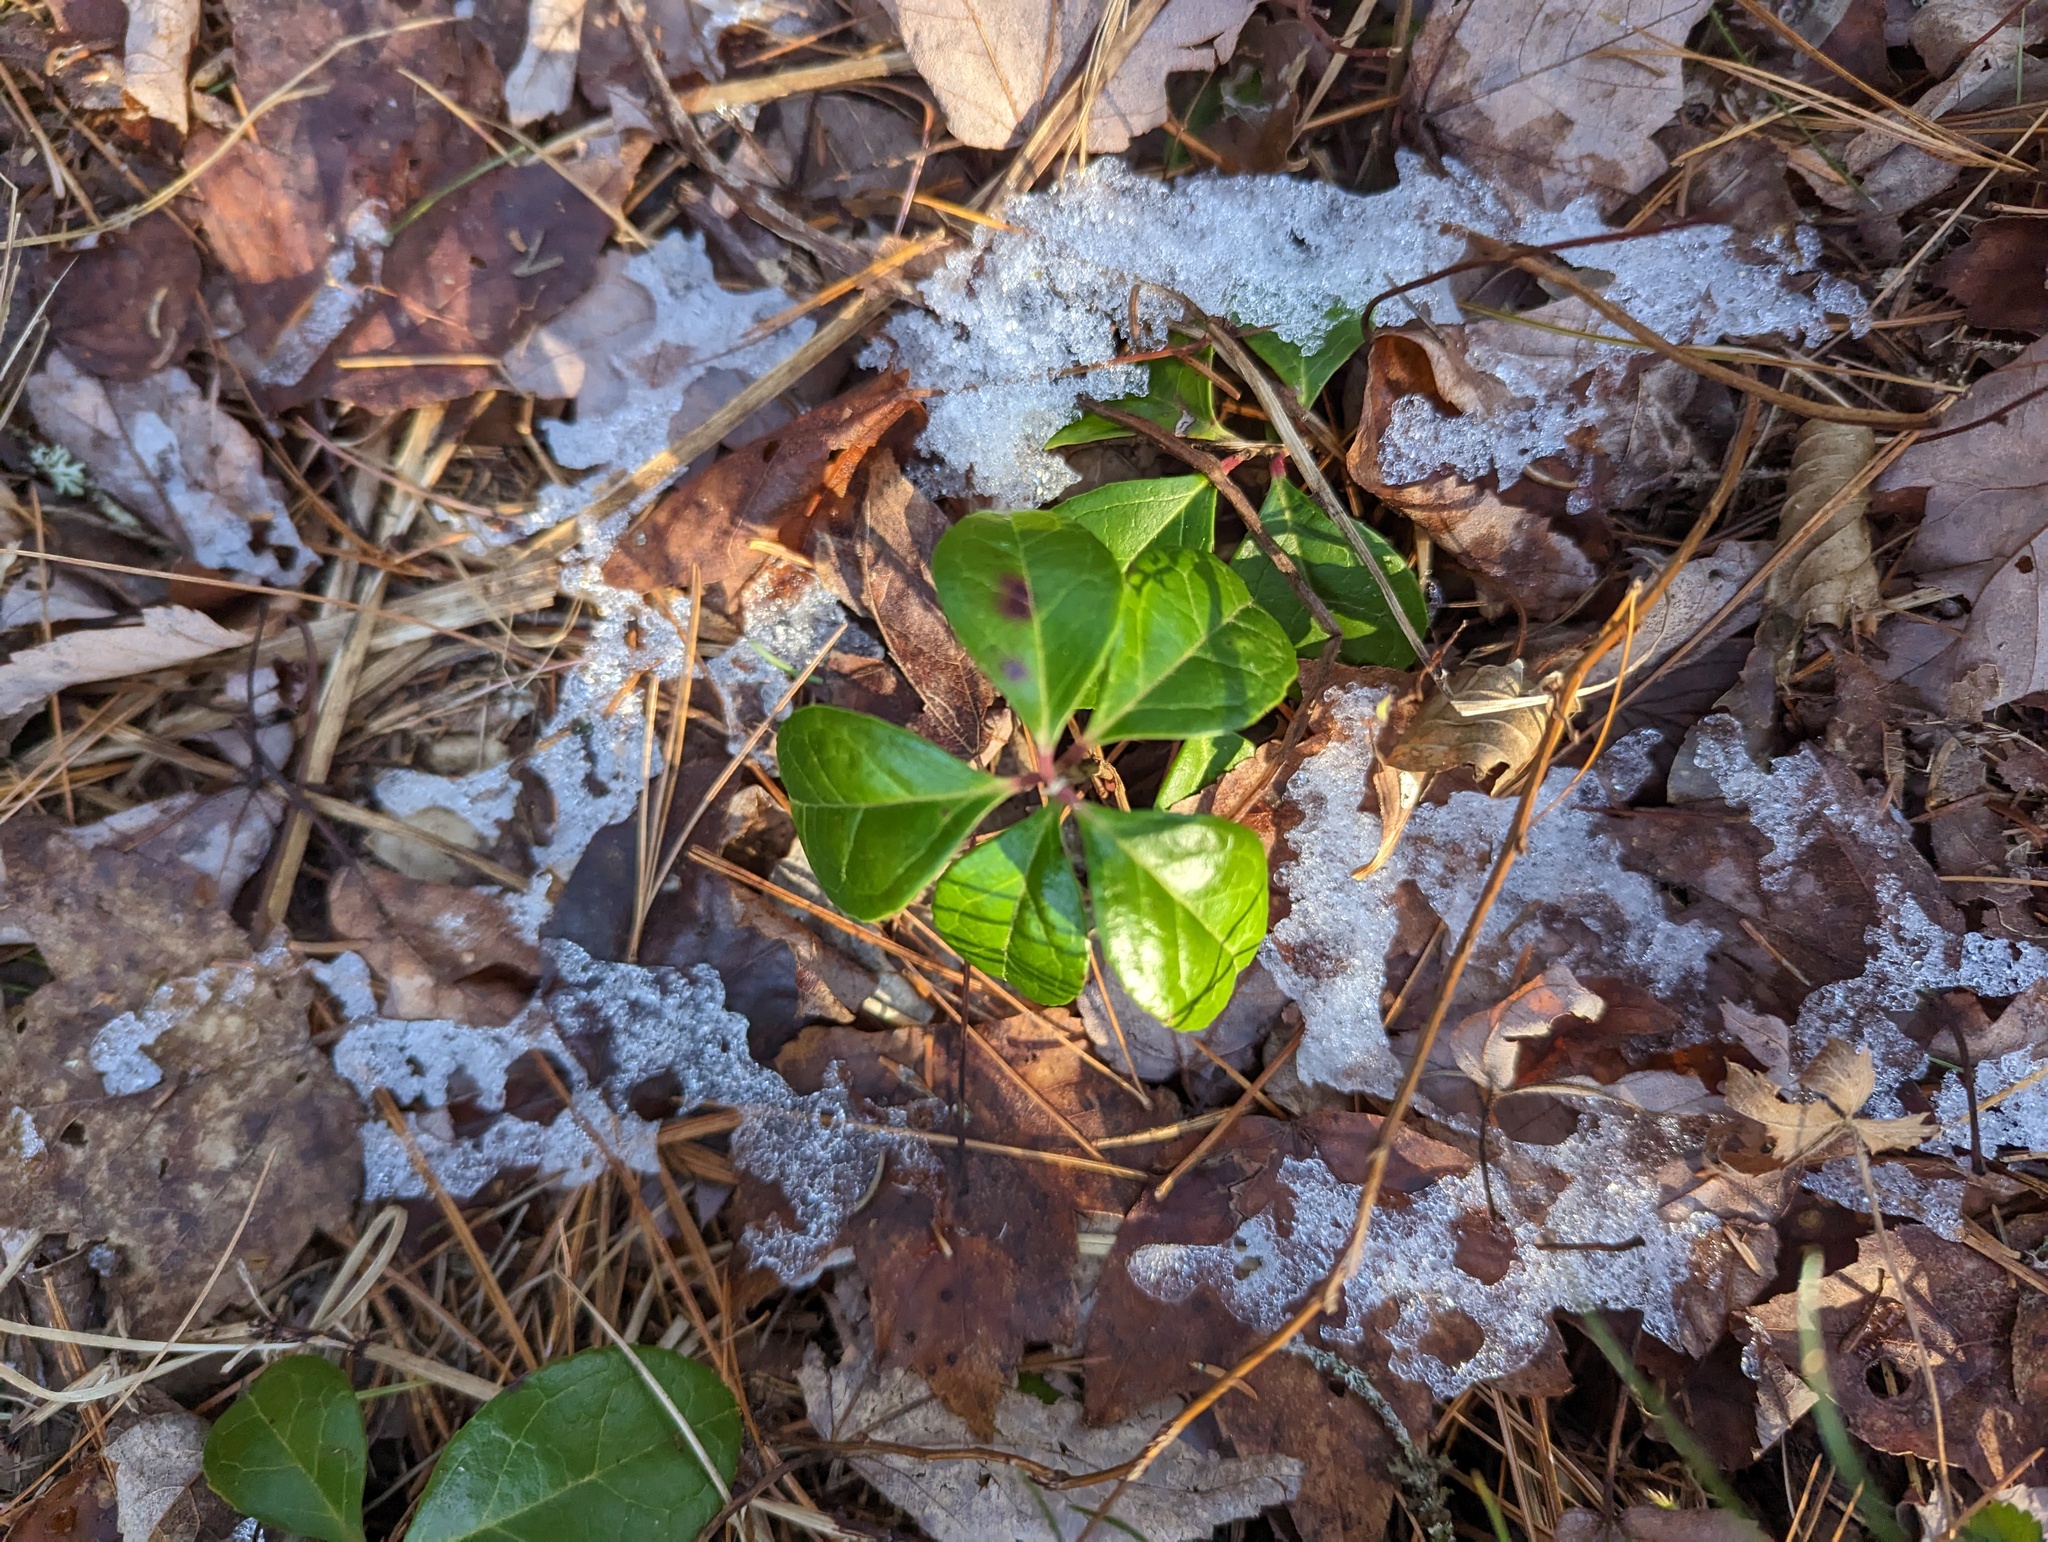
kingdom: Plantae
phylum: Tracheophyta
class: Magnoliopsida
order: Ericales
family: Ericaceae
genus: Gaultheria
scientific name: Gaultheria procumbens
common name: Checkerberry
